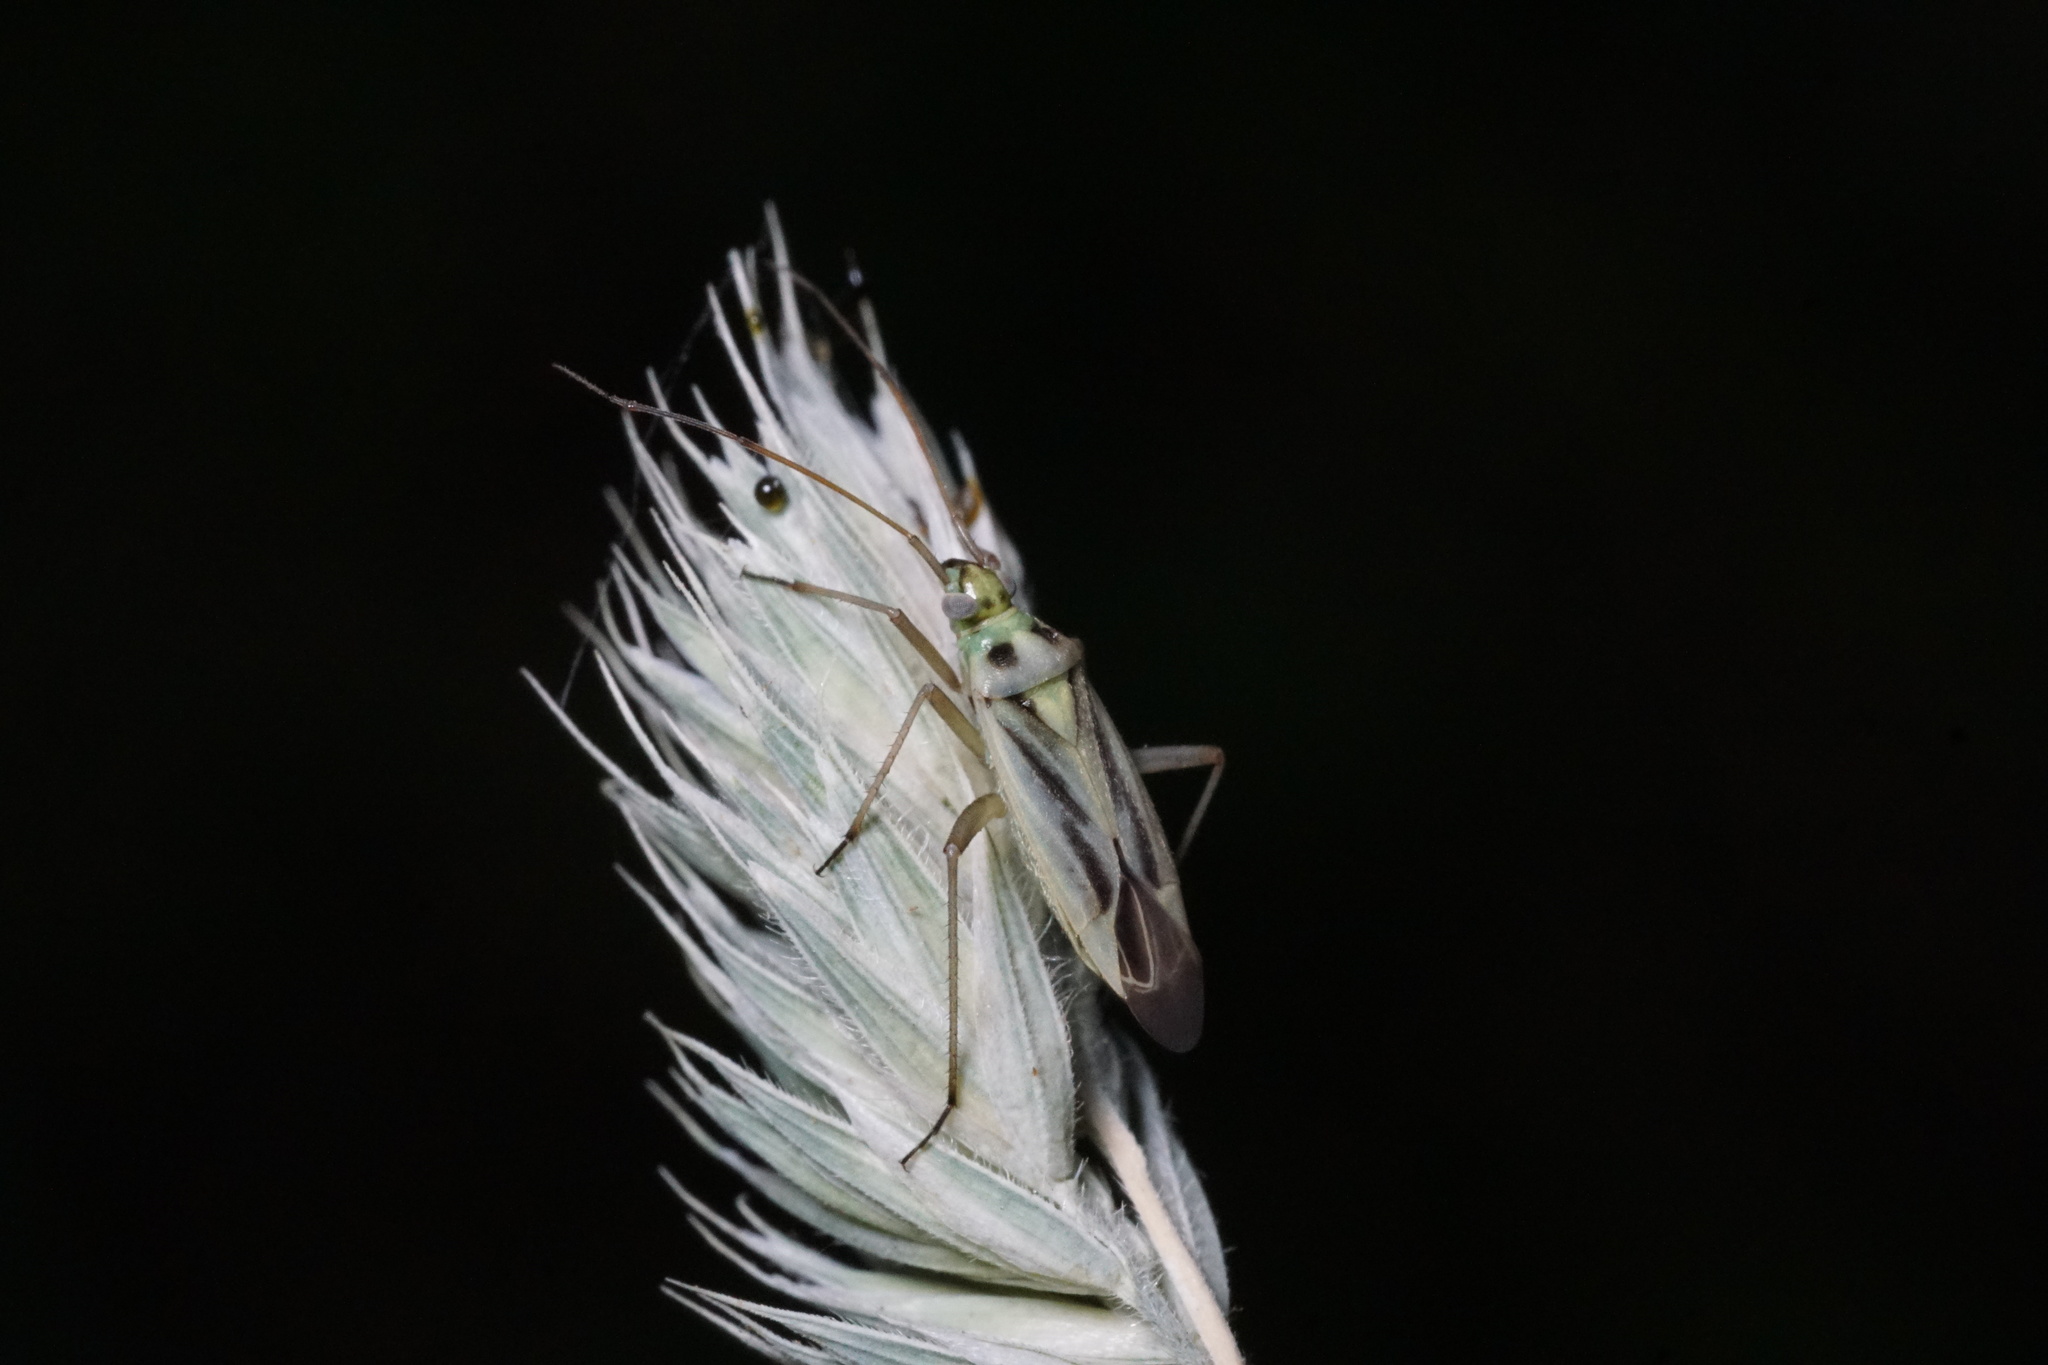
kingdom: Animalia
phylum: Arthropoda
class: Insecta
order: Hemiptera
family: Miridae
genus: Stenotus
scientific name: Stenotus binotatus
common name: Plant bug
